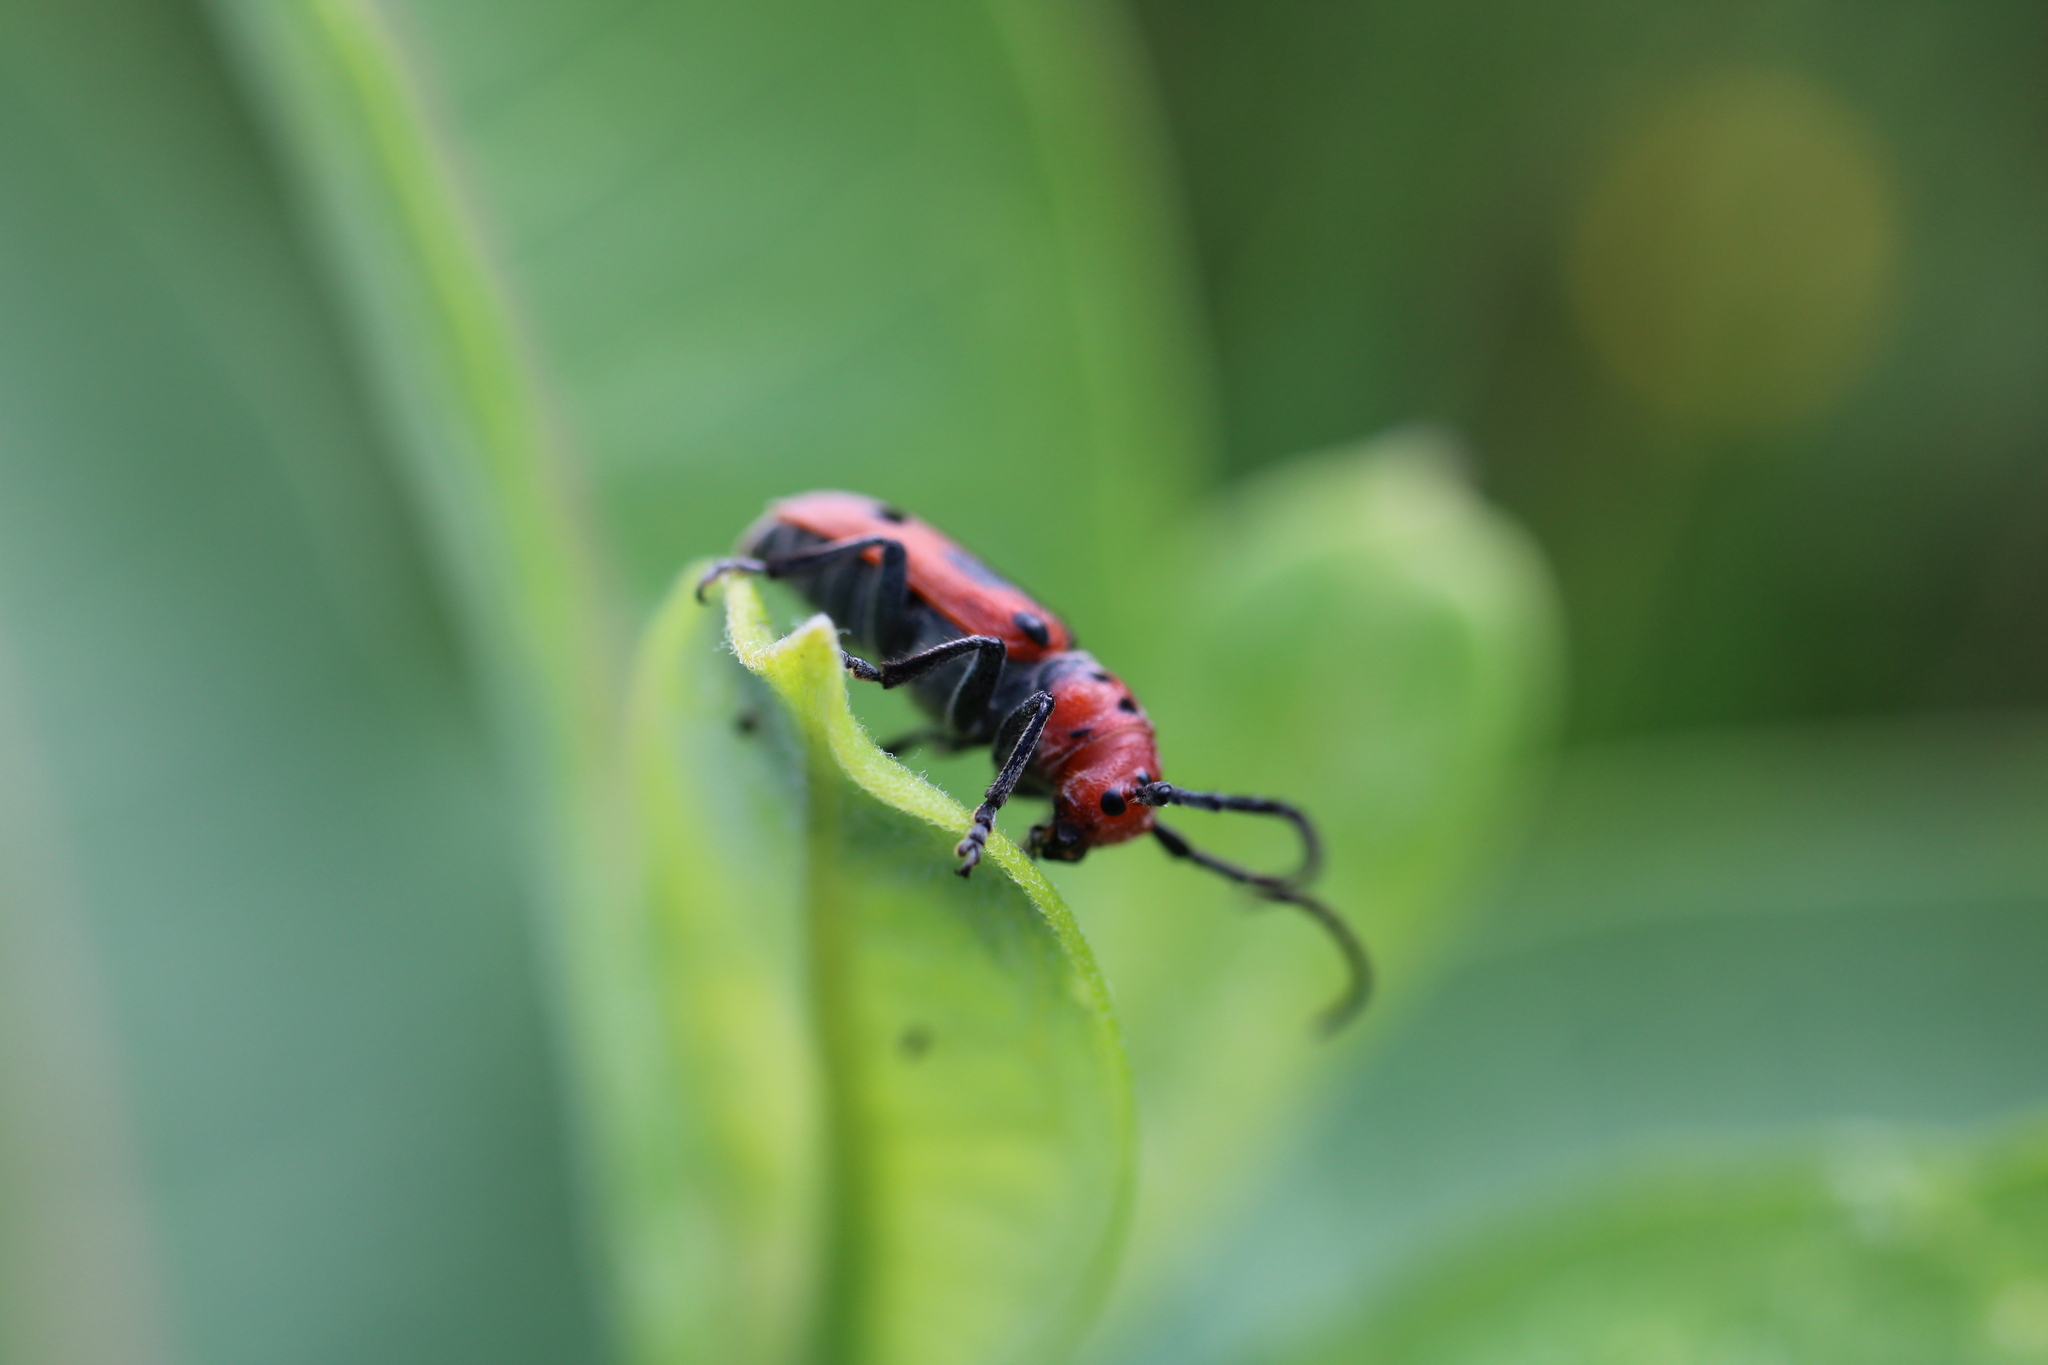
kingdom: Animalia
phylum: Arthropoda
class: Insecta
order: Coleoptera
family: Cerambycidae
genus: Tetraopes
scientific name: Tetraopes tetrophthalmus
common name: Red milkweed beetle
